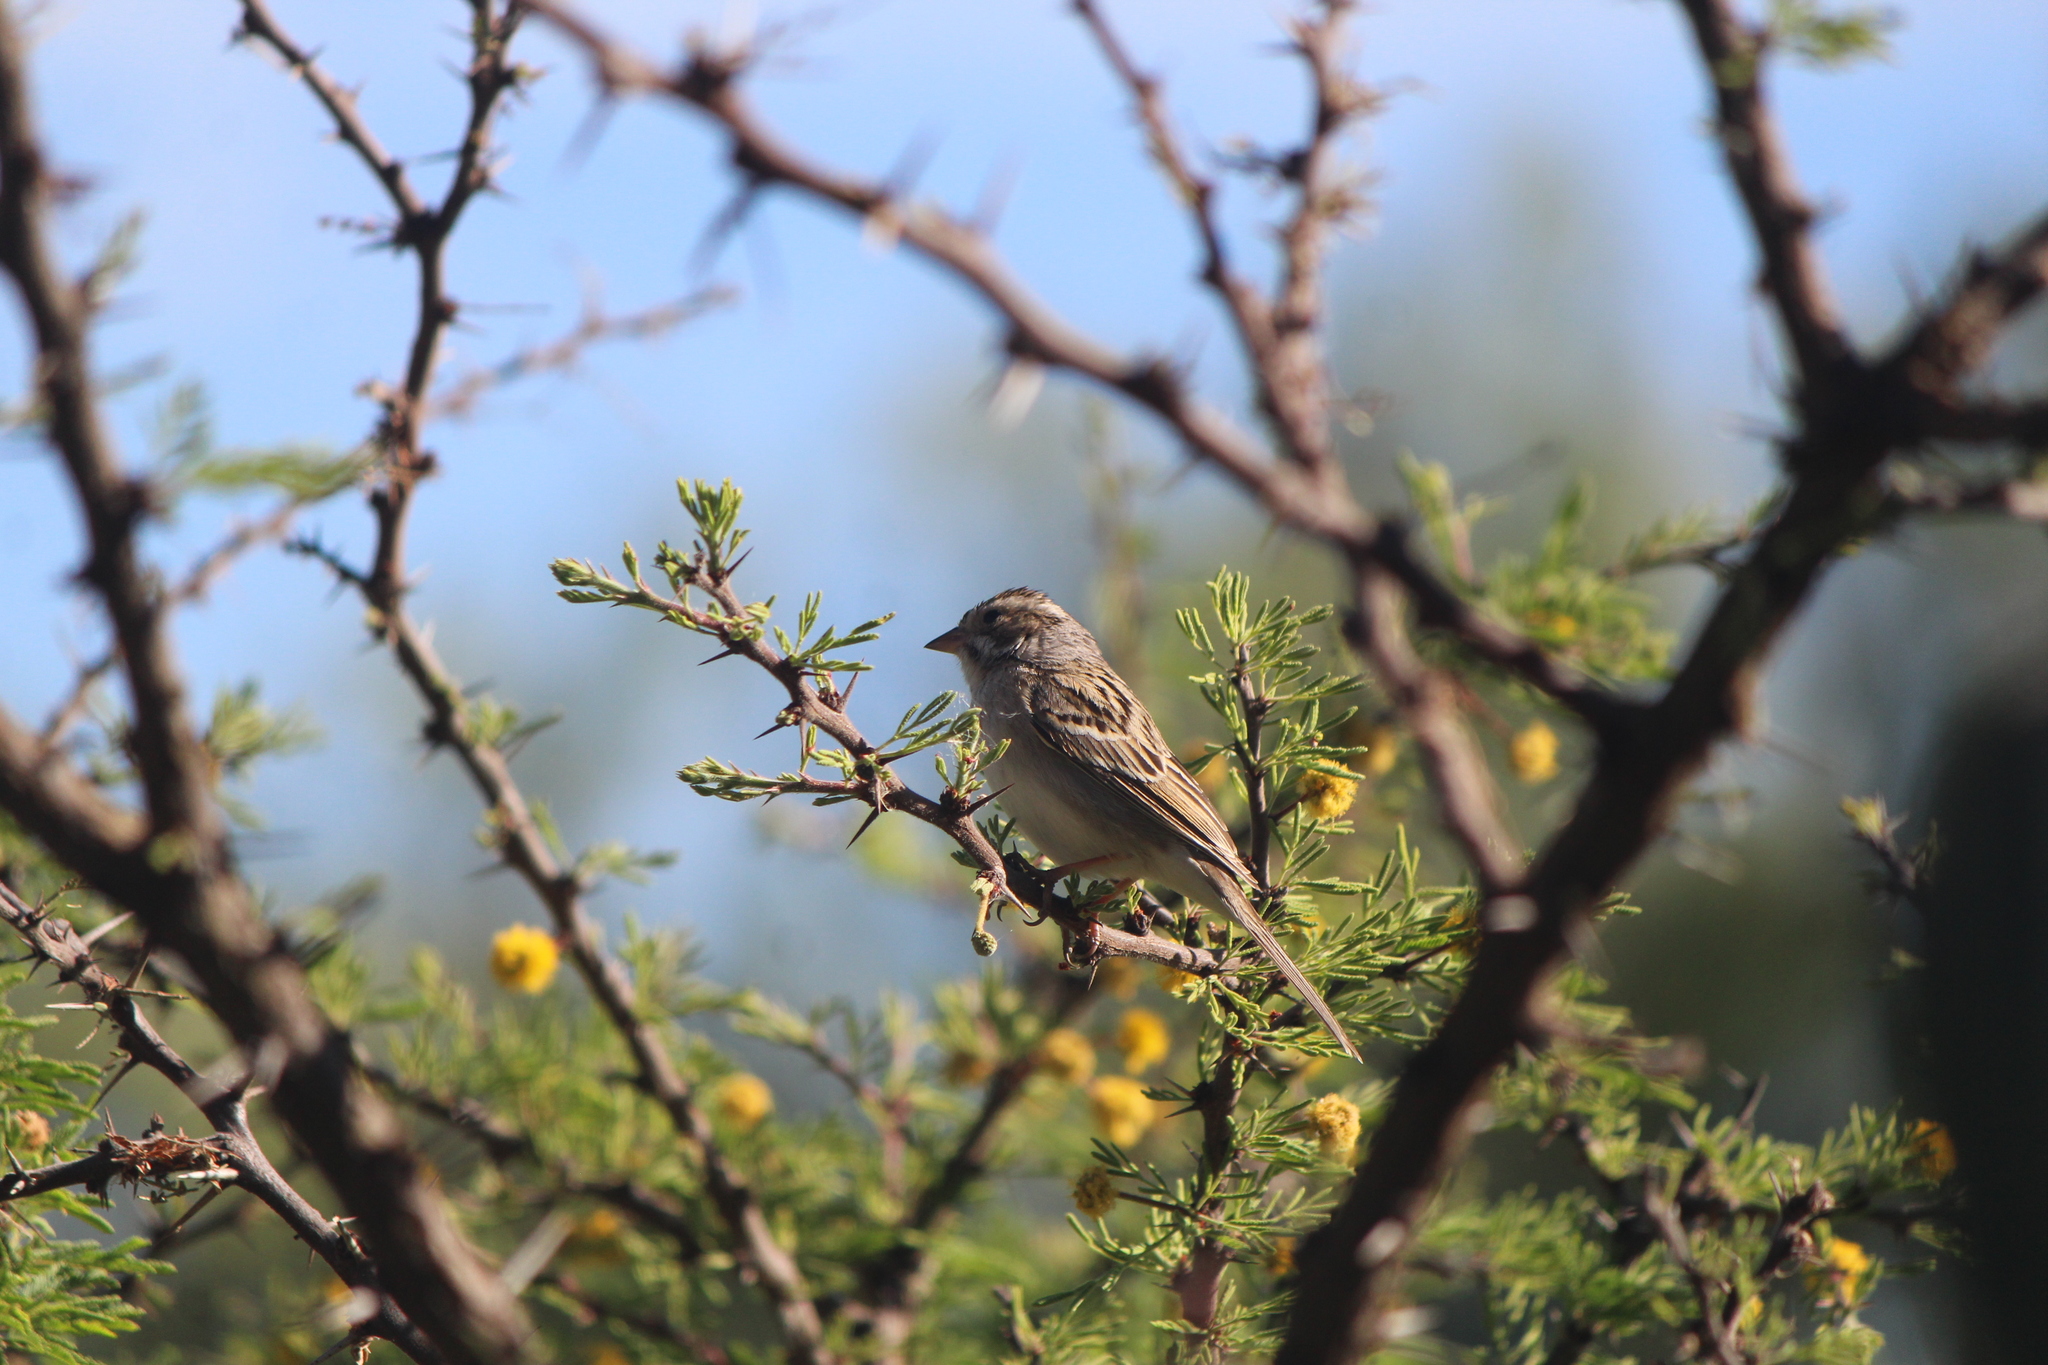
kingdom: Animalia
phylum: Chordata
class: Aves
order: Passeriformes
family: Passerellidae
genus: Spizella
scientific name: Spizella pallida
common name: Clay-colored sparrow
